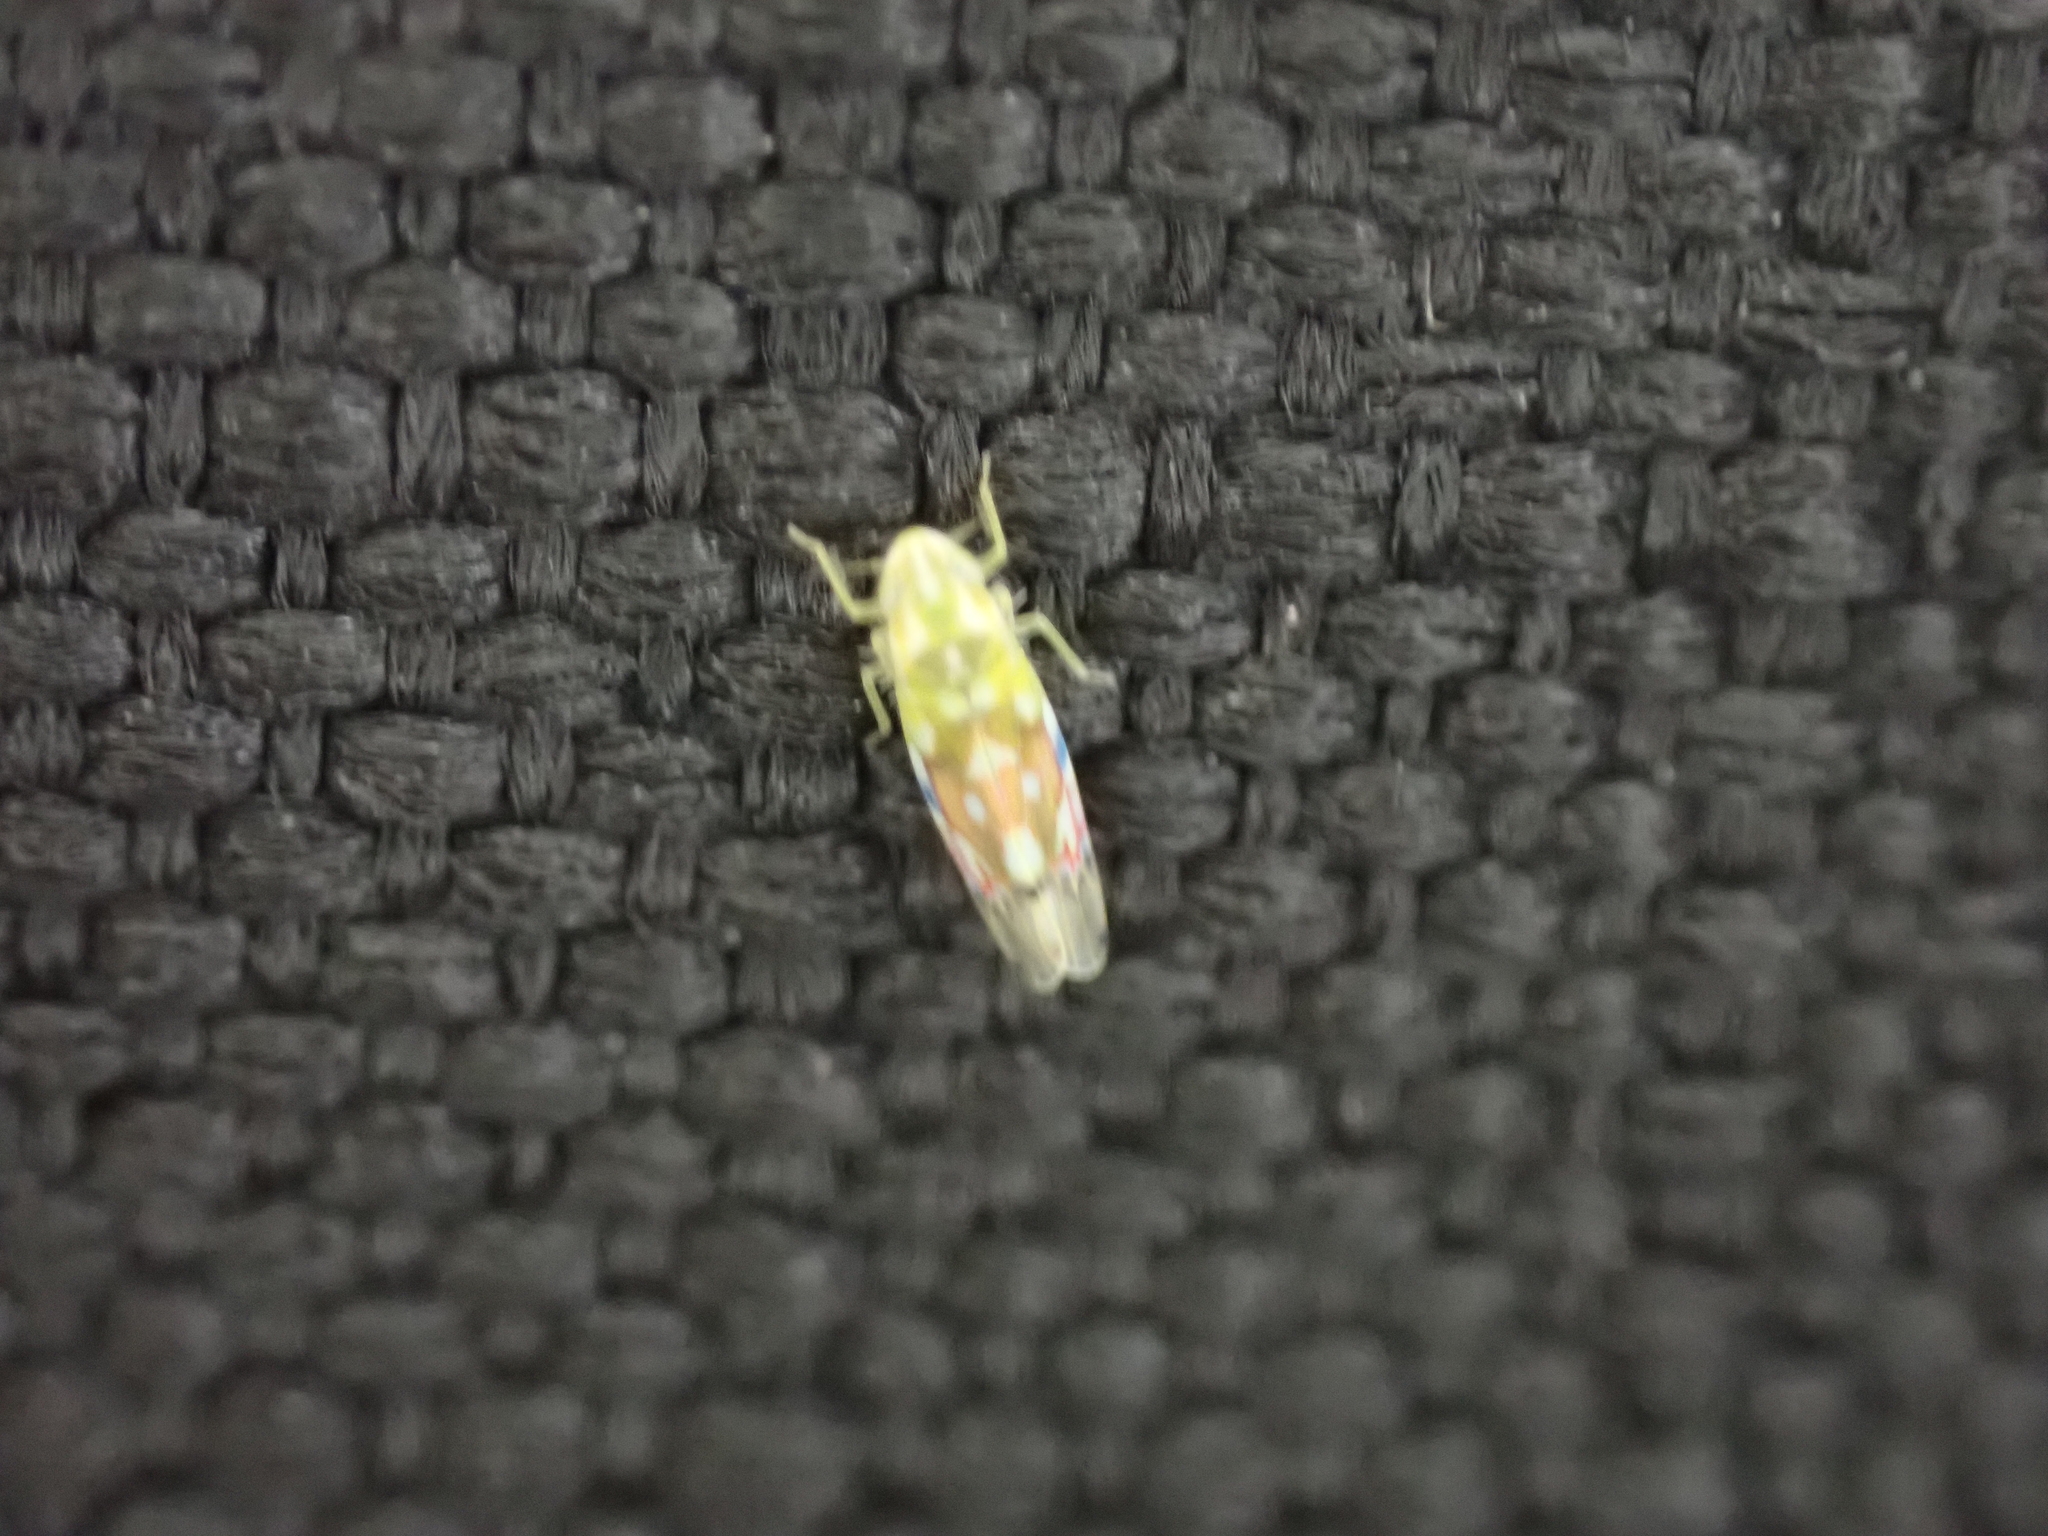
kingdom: Animalia
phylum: Arthropoda
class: Insecta
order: Hemiptera
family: Cicadellidae
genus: Erythroneura
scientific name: Erythroneura reflecta
